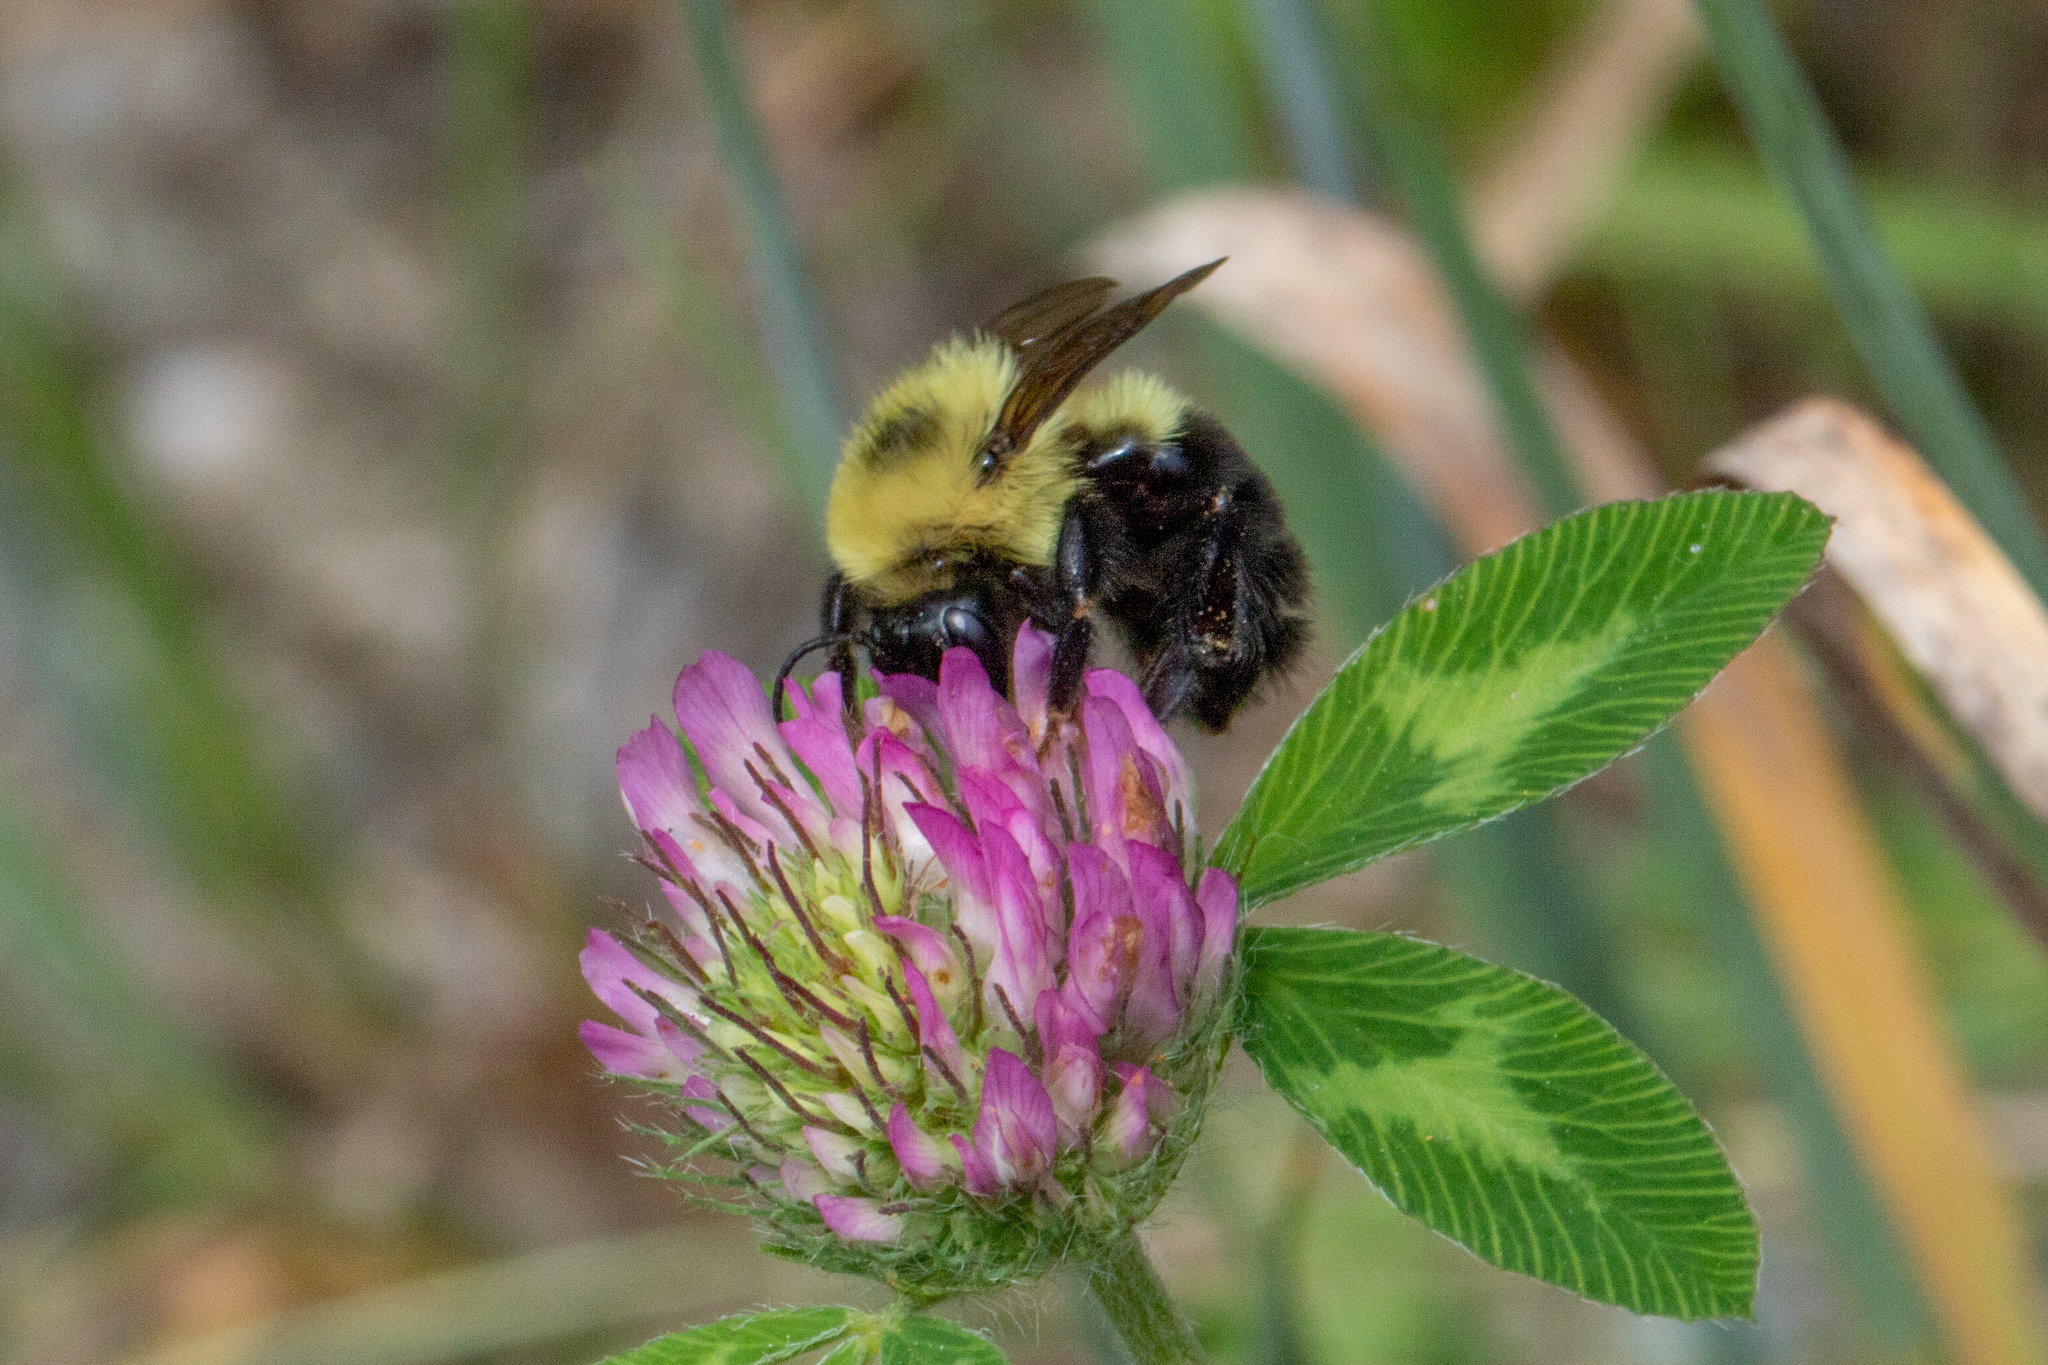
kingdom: Animalia
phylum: Arthropoda
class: Insecta
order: Hymenoptera
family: Apidae
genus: Bombus
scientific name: Bombus bimaculatus
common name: Two-spotted bumble bee
